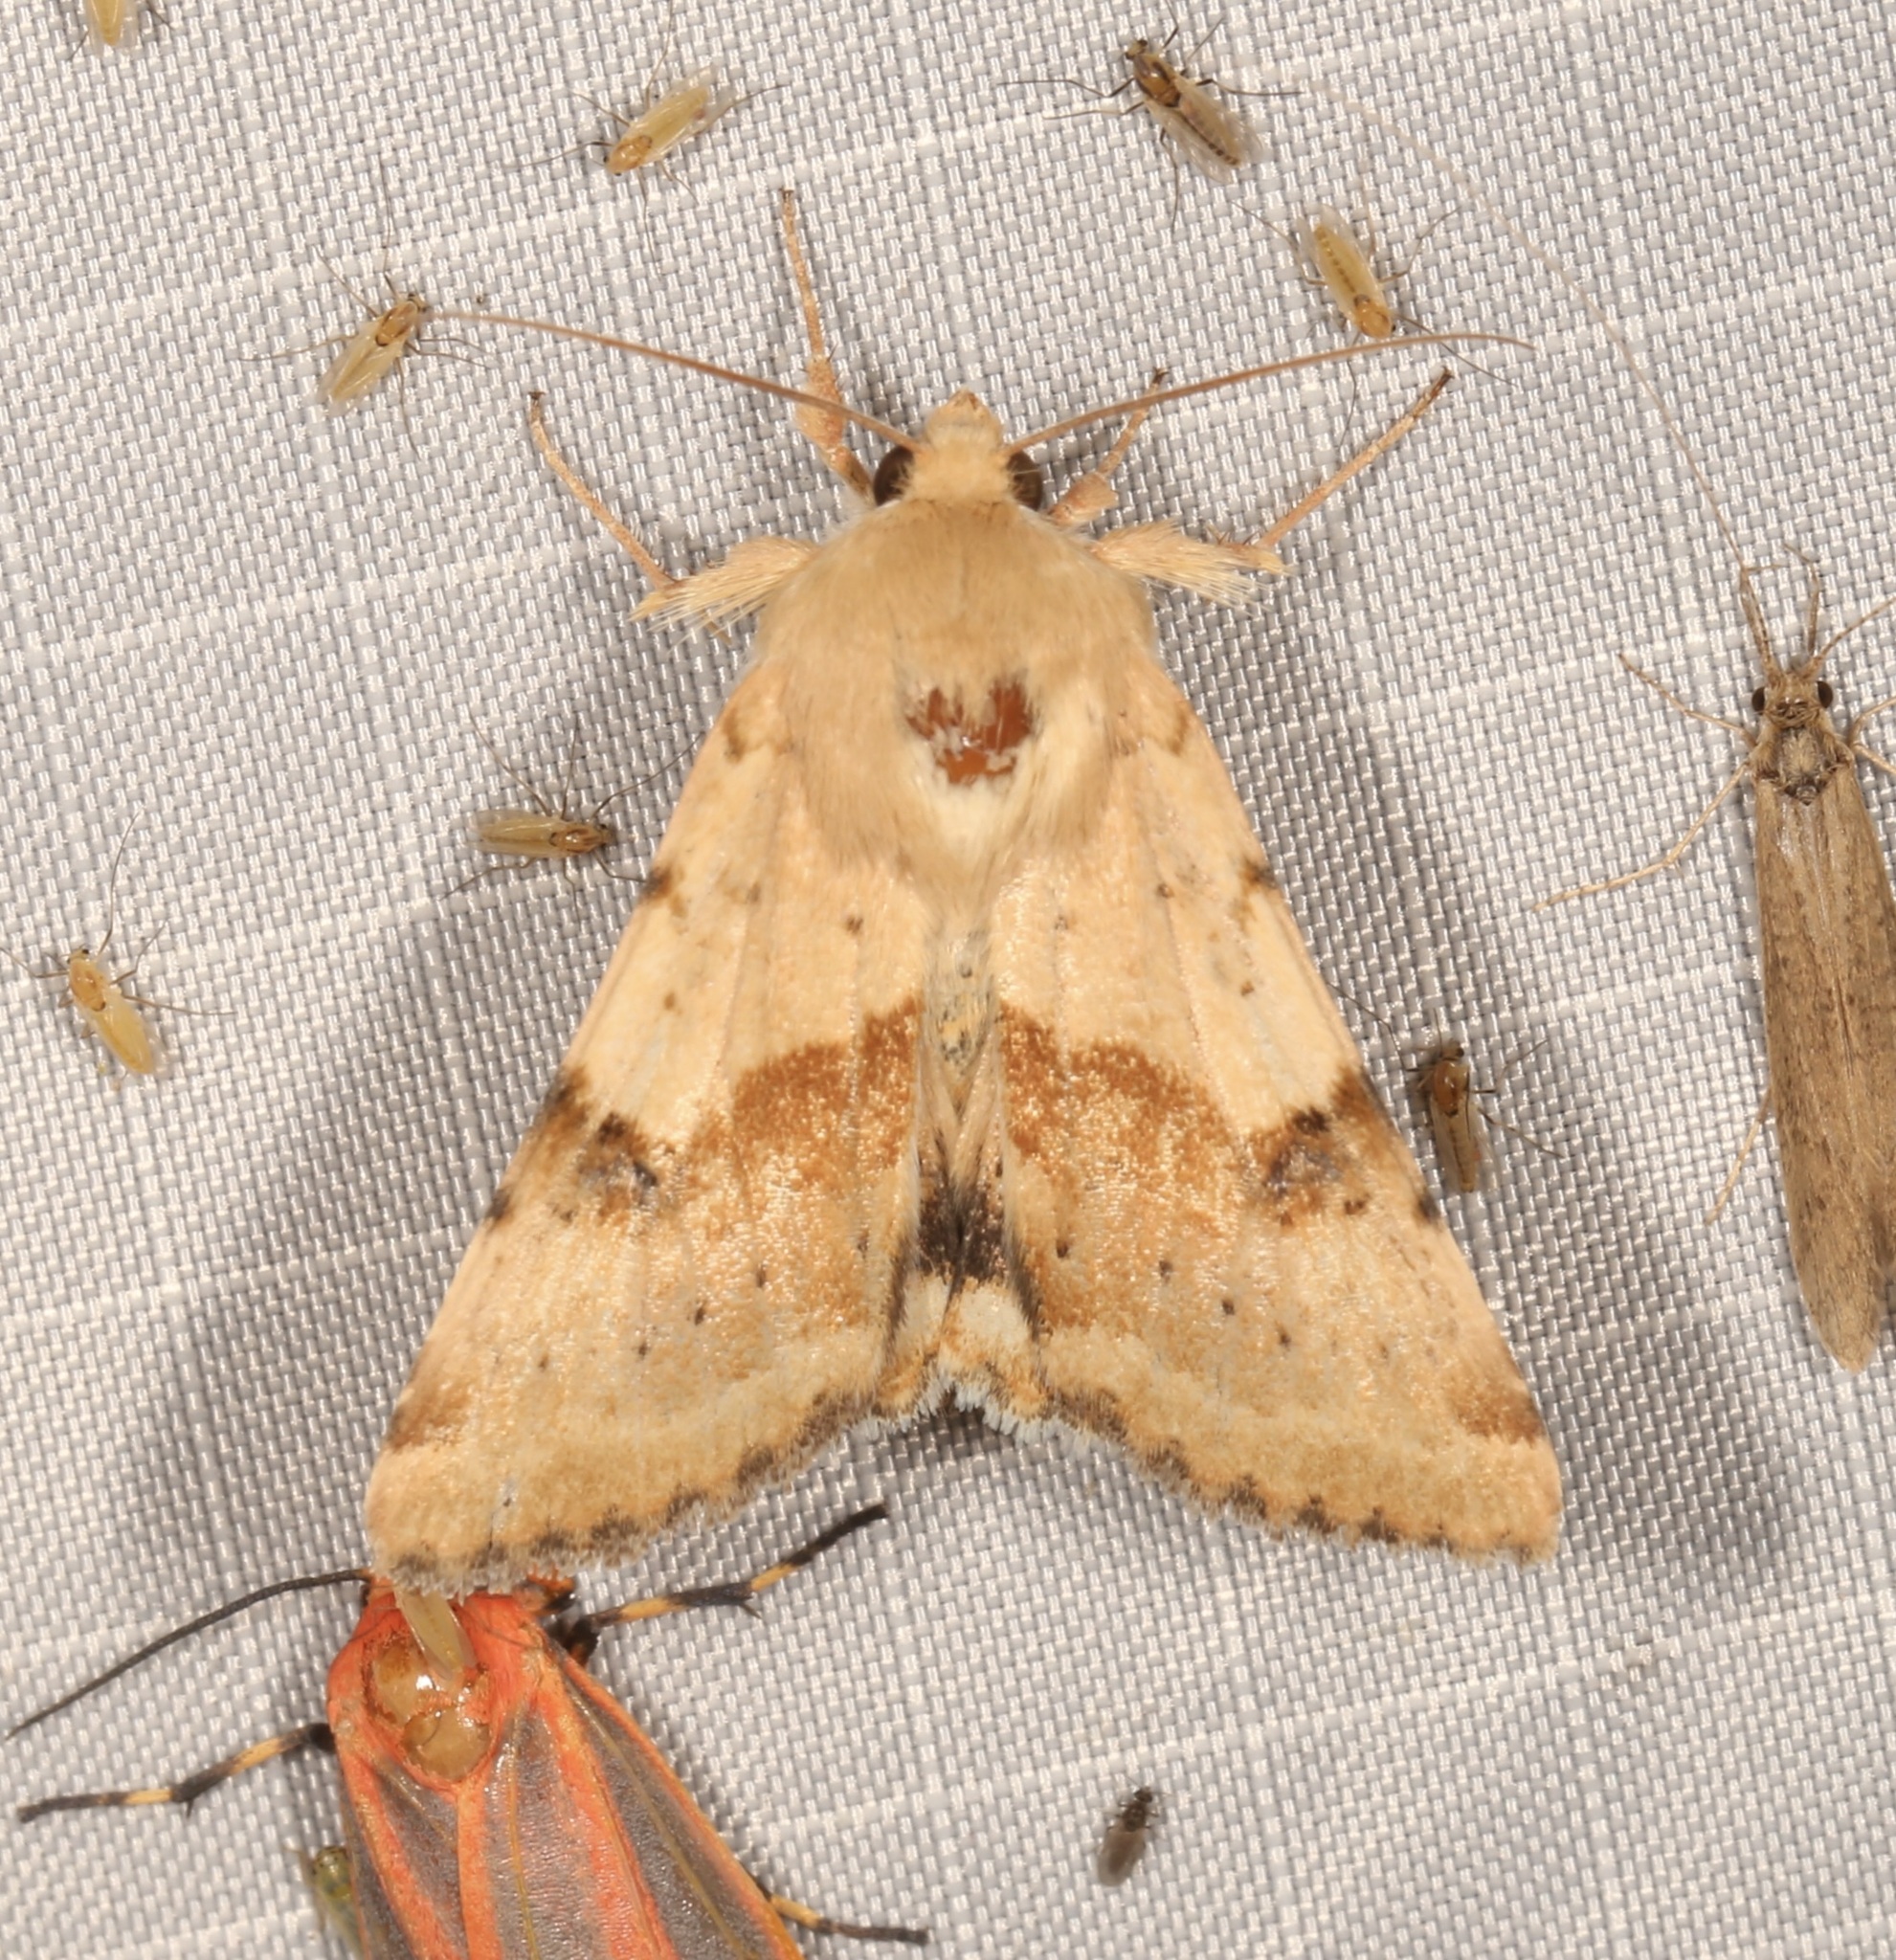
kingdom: Animalia
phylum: Arthropoda
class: Insecta
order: Lepidoptera
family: Noctuidae
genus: Heliothis
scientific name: Heliothis phloxiphaga
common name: Darker spotted straw moth
